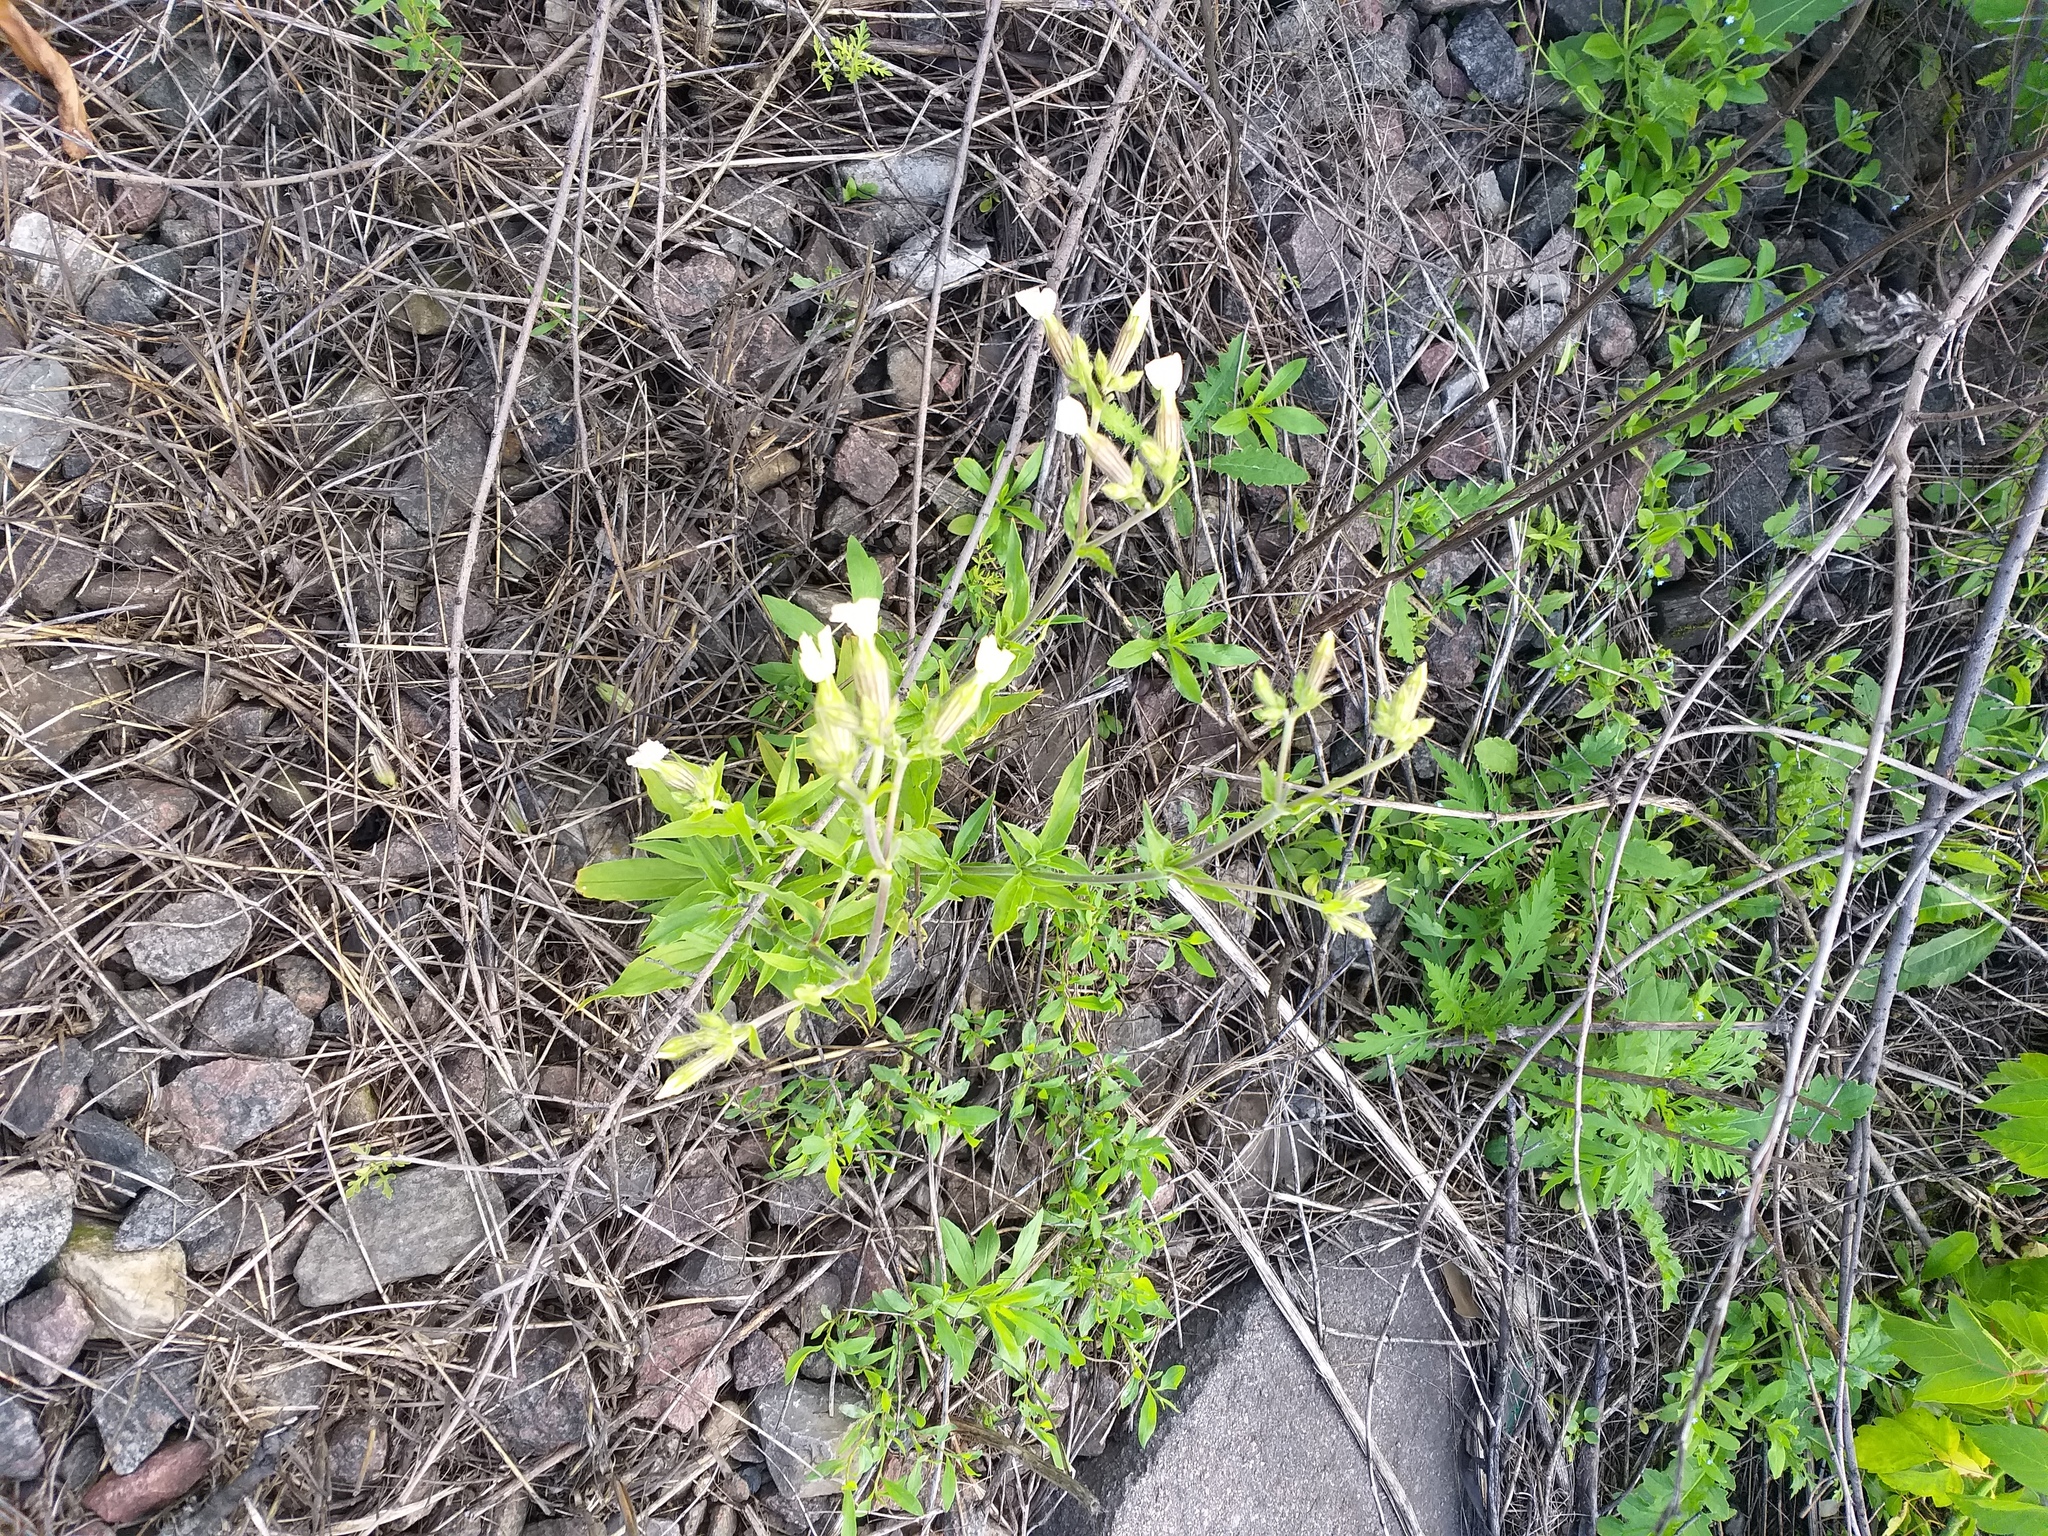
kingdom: Plantae
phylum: Tracheophyta
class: Magnoliopsida
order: Caryophyllales
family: Caryophyllaceae
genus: Silene
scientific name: Silene latifolia
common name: White campion
